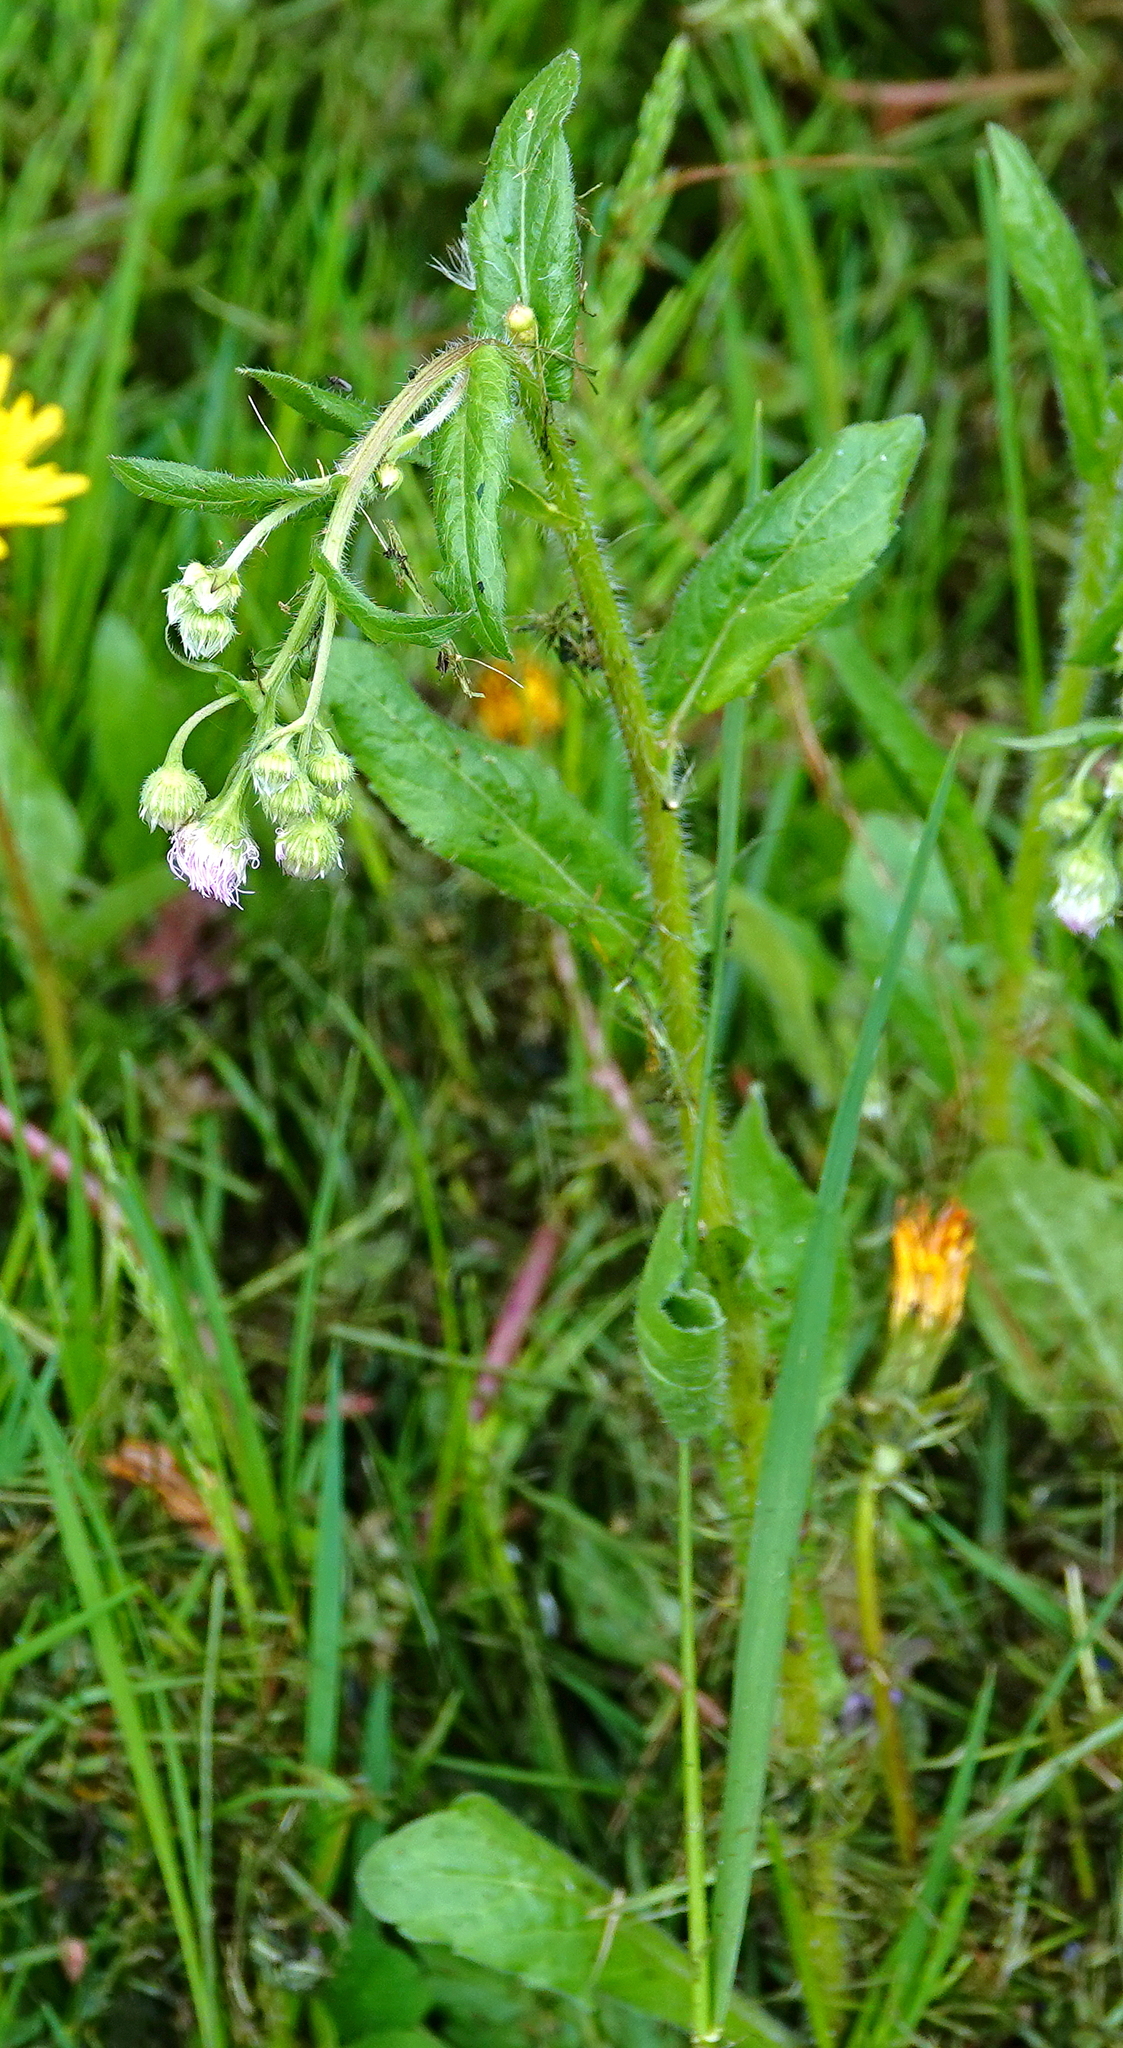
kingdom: Plantae
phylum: Tracheophyta
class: Magnoliopsida
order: Asterales
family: Asteraceae
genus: Erigeron
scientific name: Erigeron philadelphicus
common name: Robin's-plantain
